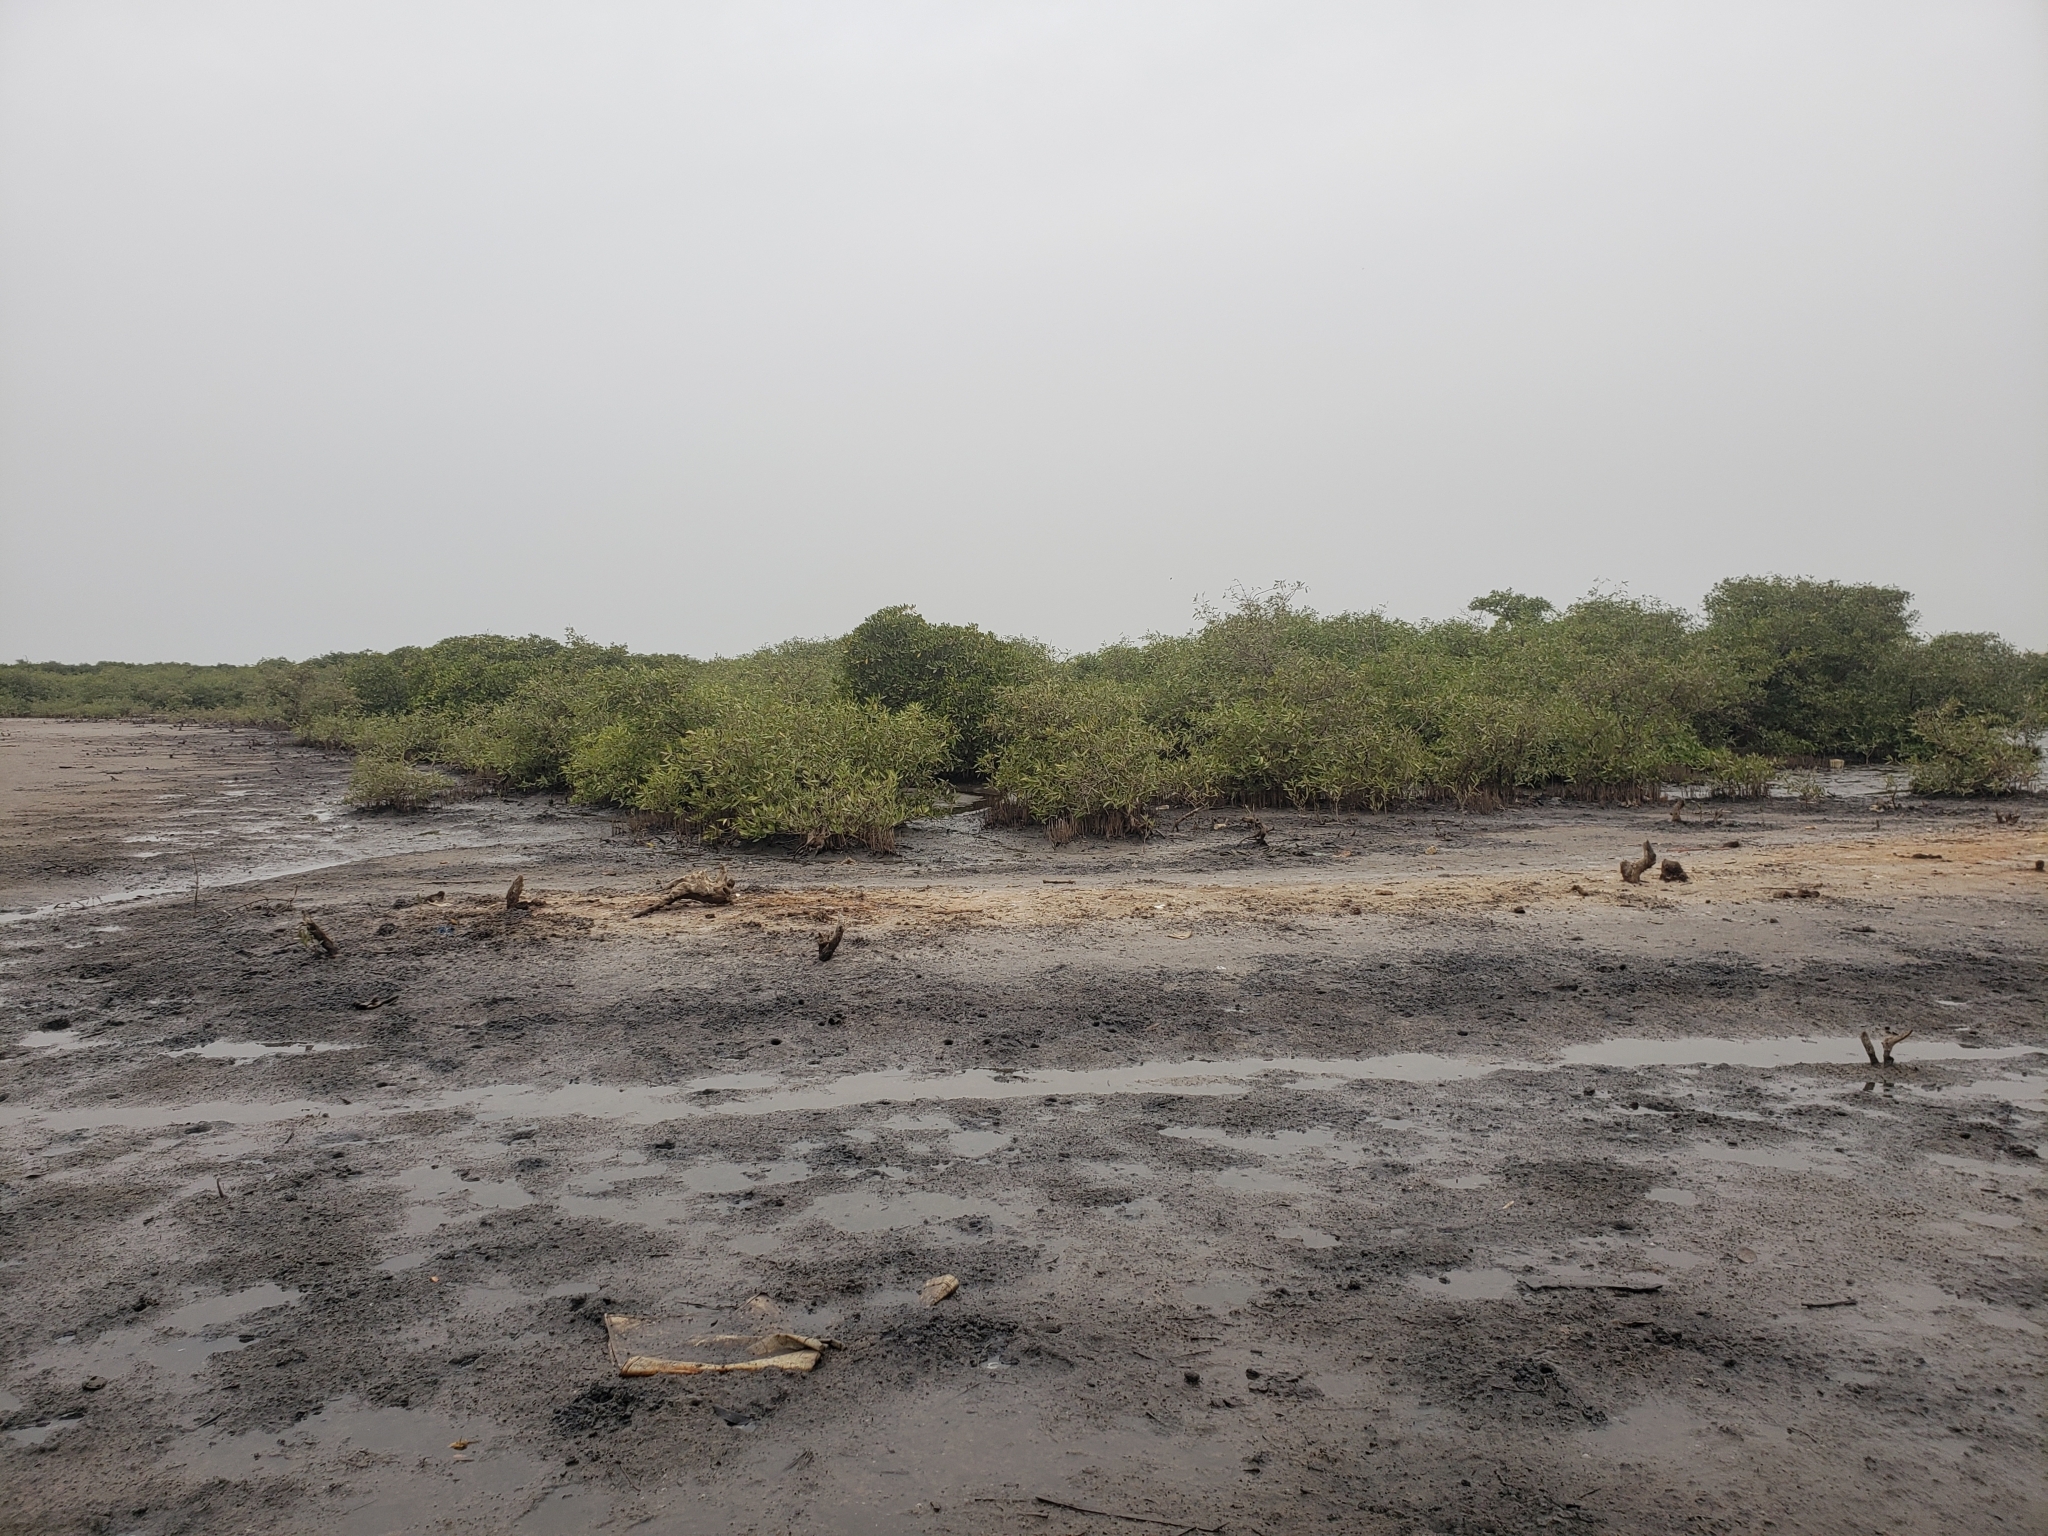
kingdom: Plantae
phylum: Tracheophyta
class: Magnoliopsida
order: Lamiales
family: Acanthaceae
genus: Avicennia
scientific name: Avicennia germinans
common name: Black mangrove
